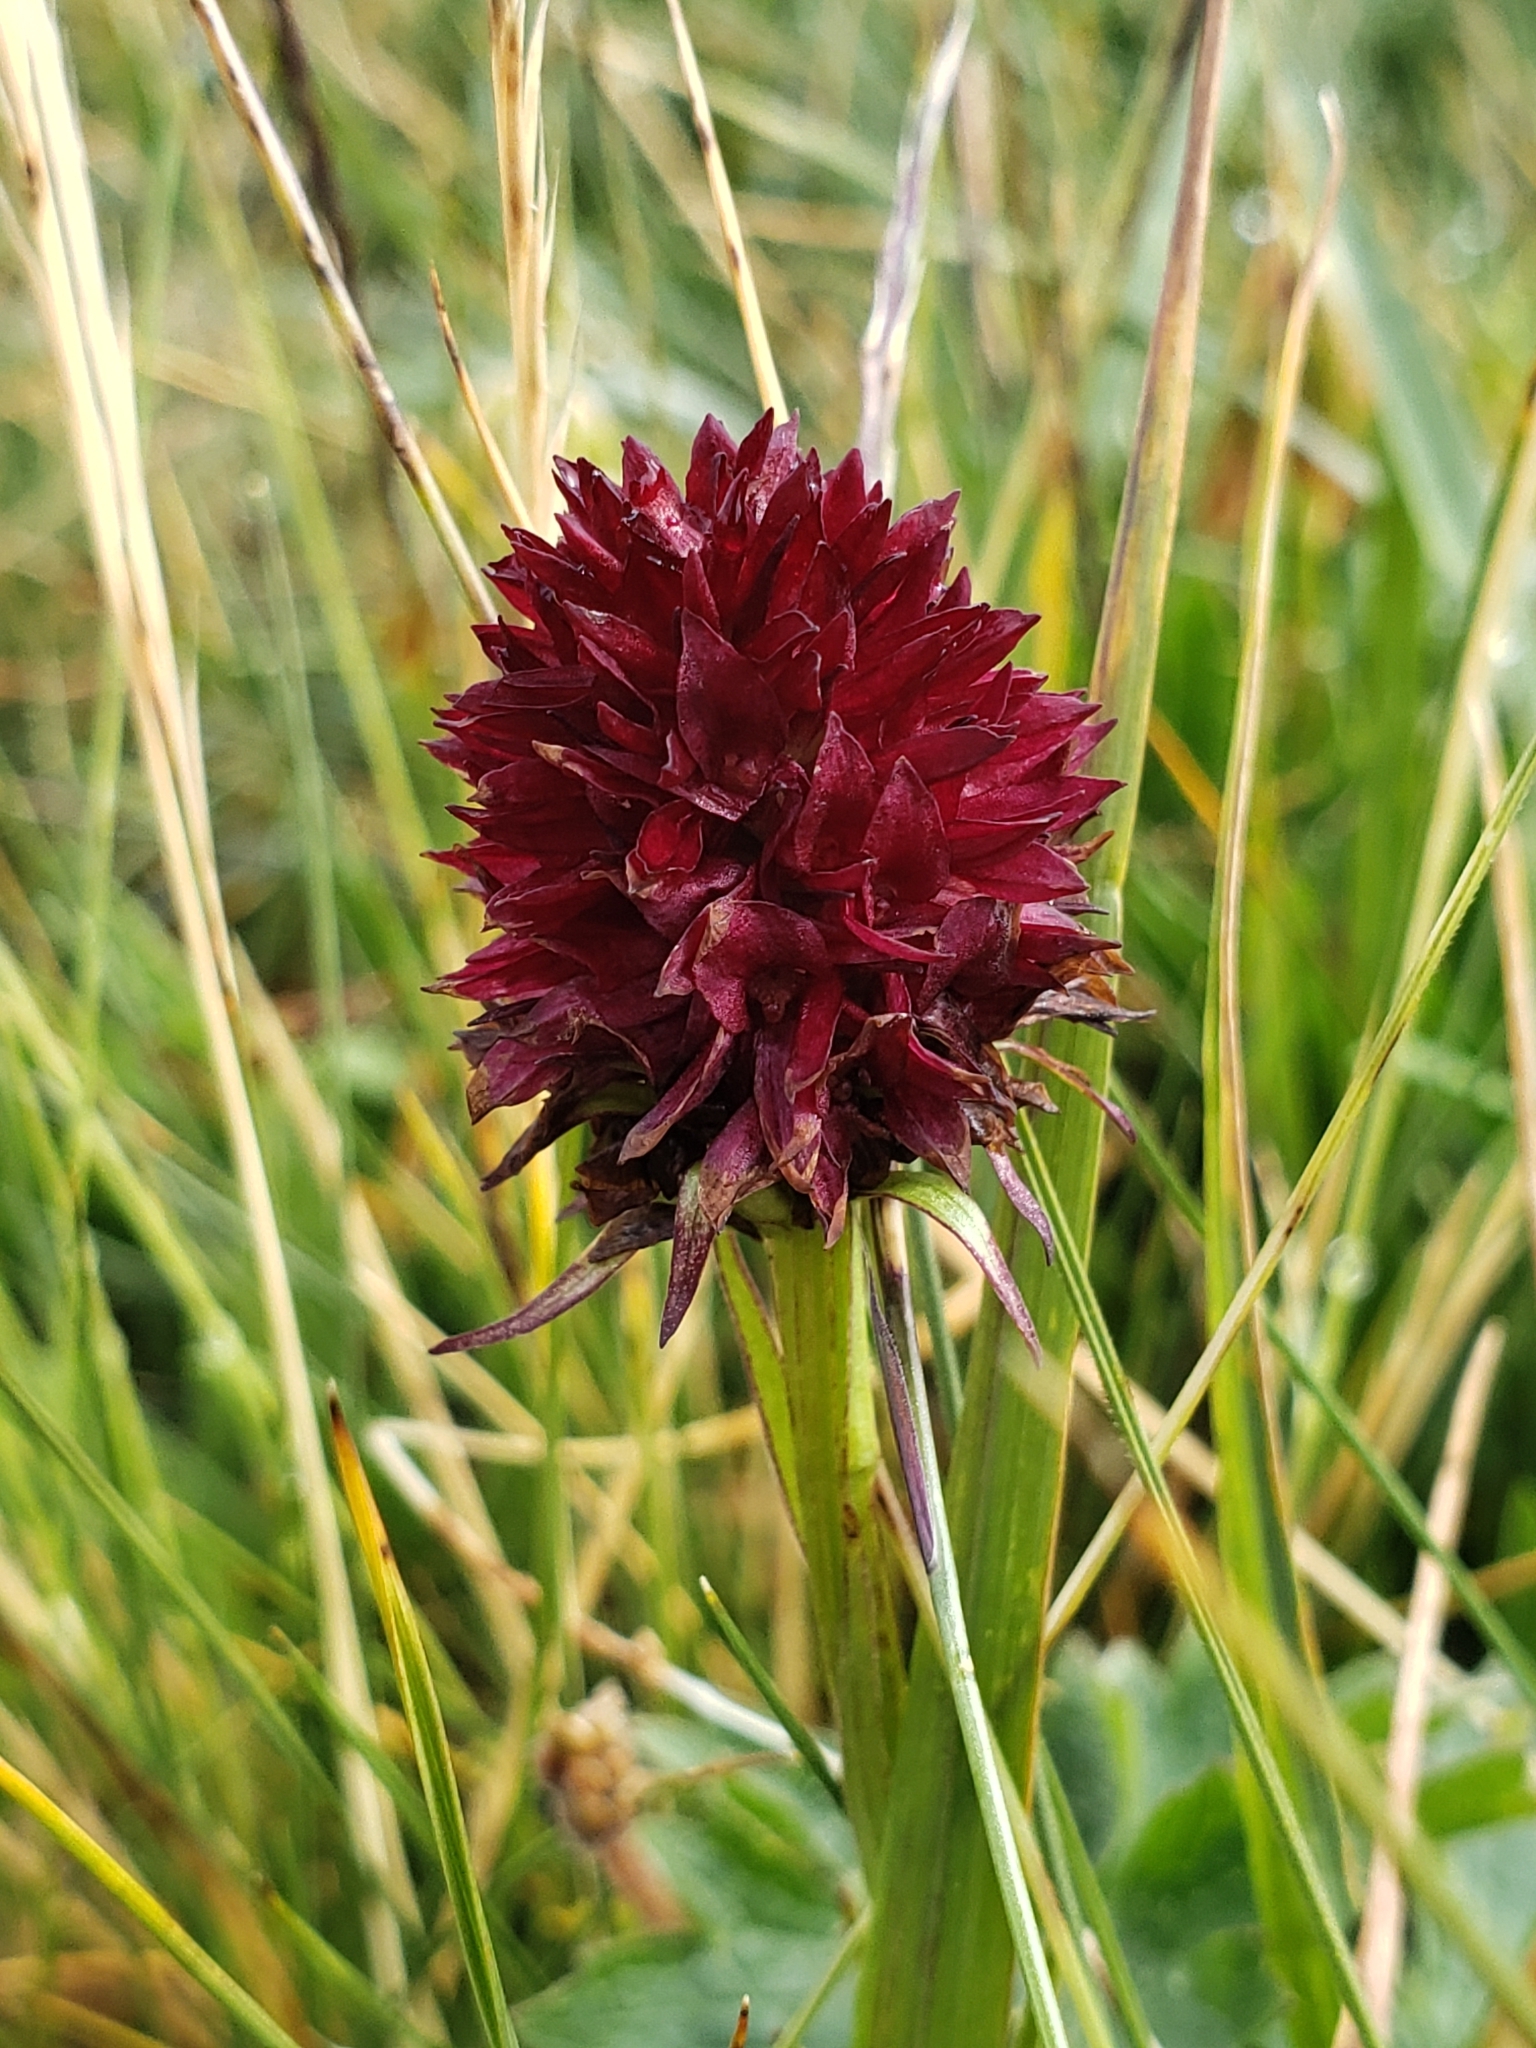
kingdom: Plantae
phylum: Tracheophyta
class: Liliopsida
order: Asparagales
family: Orchidaceae
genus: Gymnadenia
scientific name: Gymnadenia rhellicani
